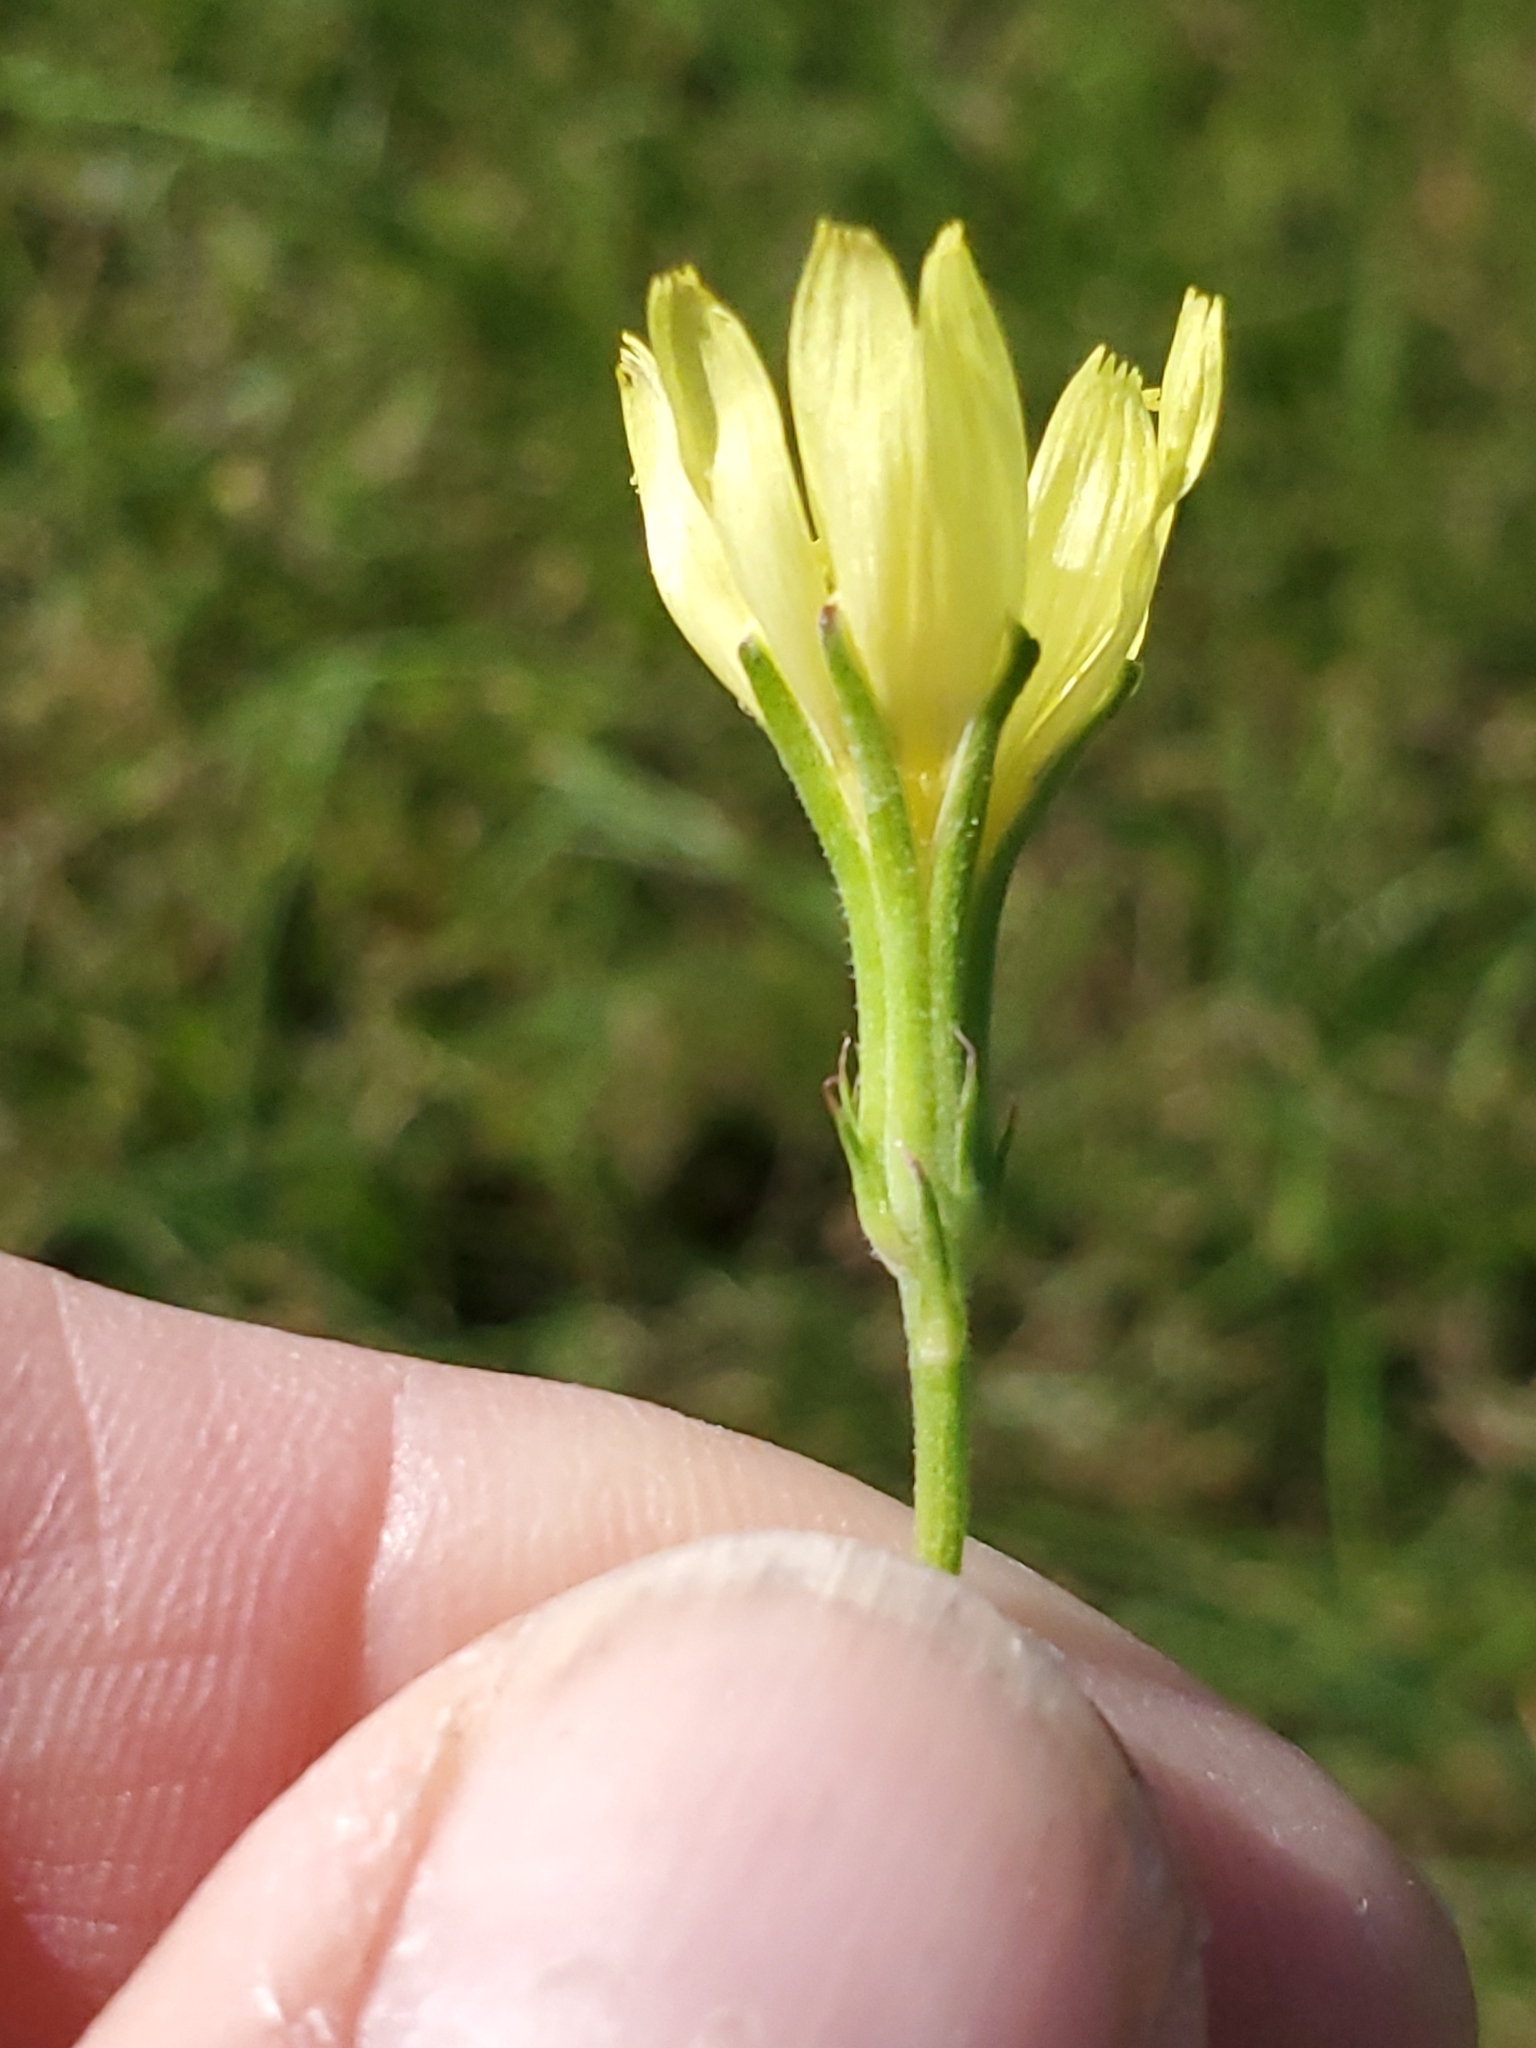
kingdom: Plantae
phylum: Tracheophyta
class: Magnoliopsida
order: Asterales
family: Asteraceae
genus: Pyrrhopappus
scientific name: Pyrrhopappus carolinianus
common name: Carolina desert-chicory
